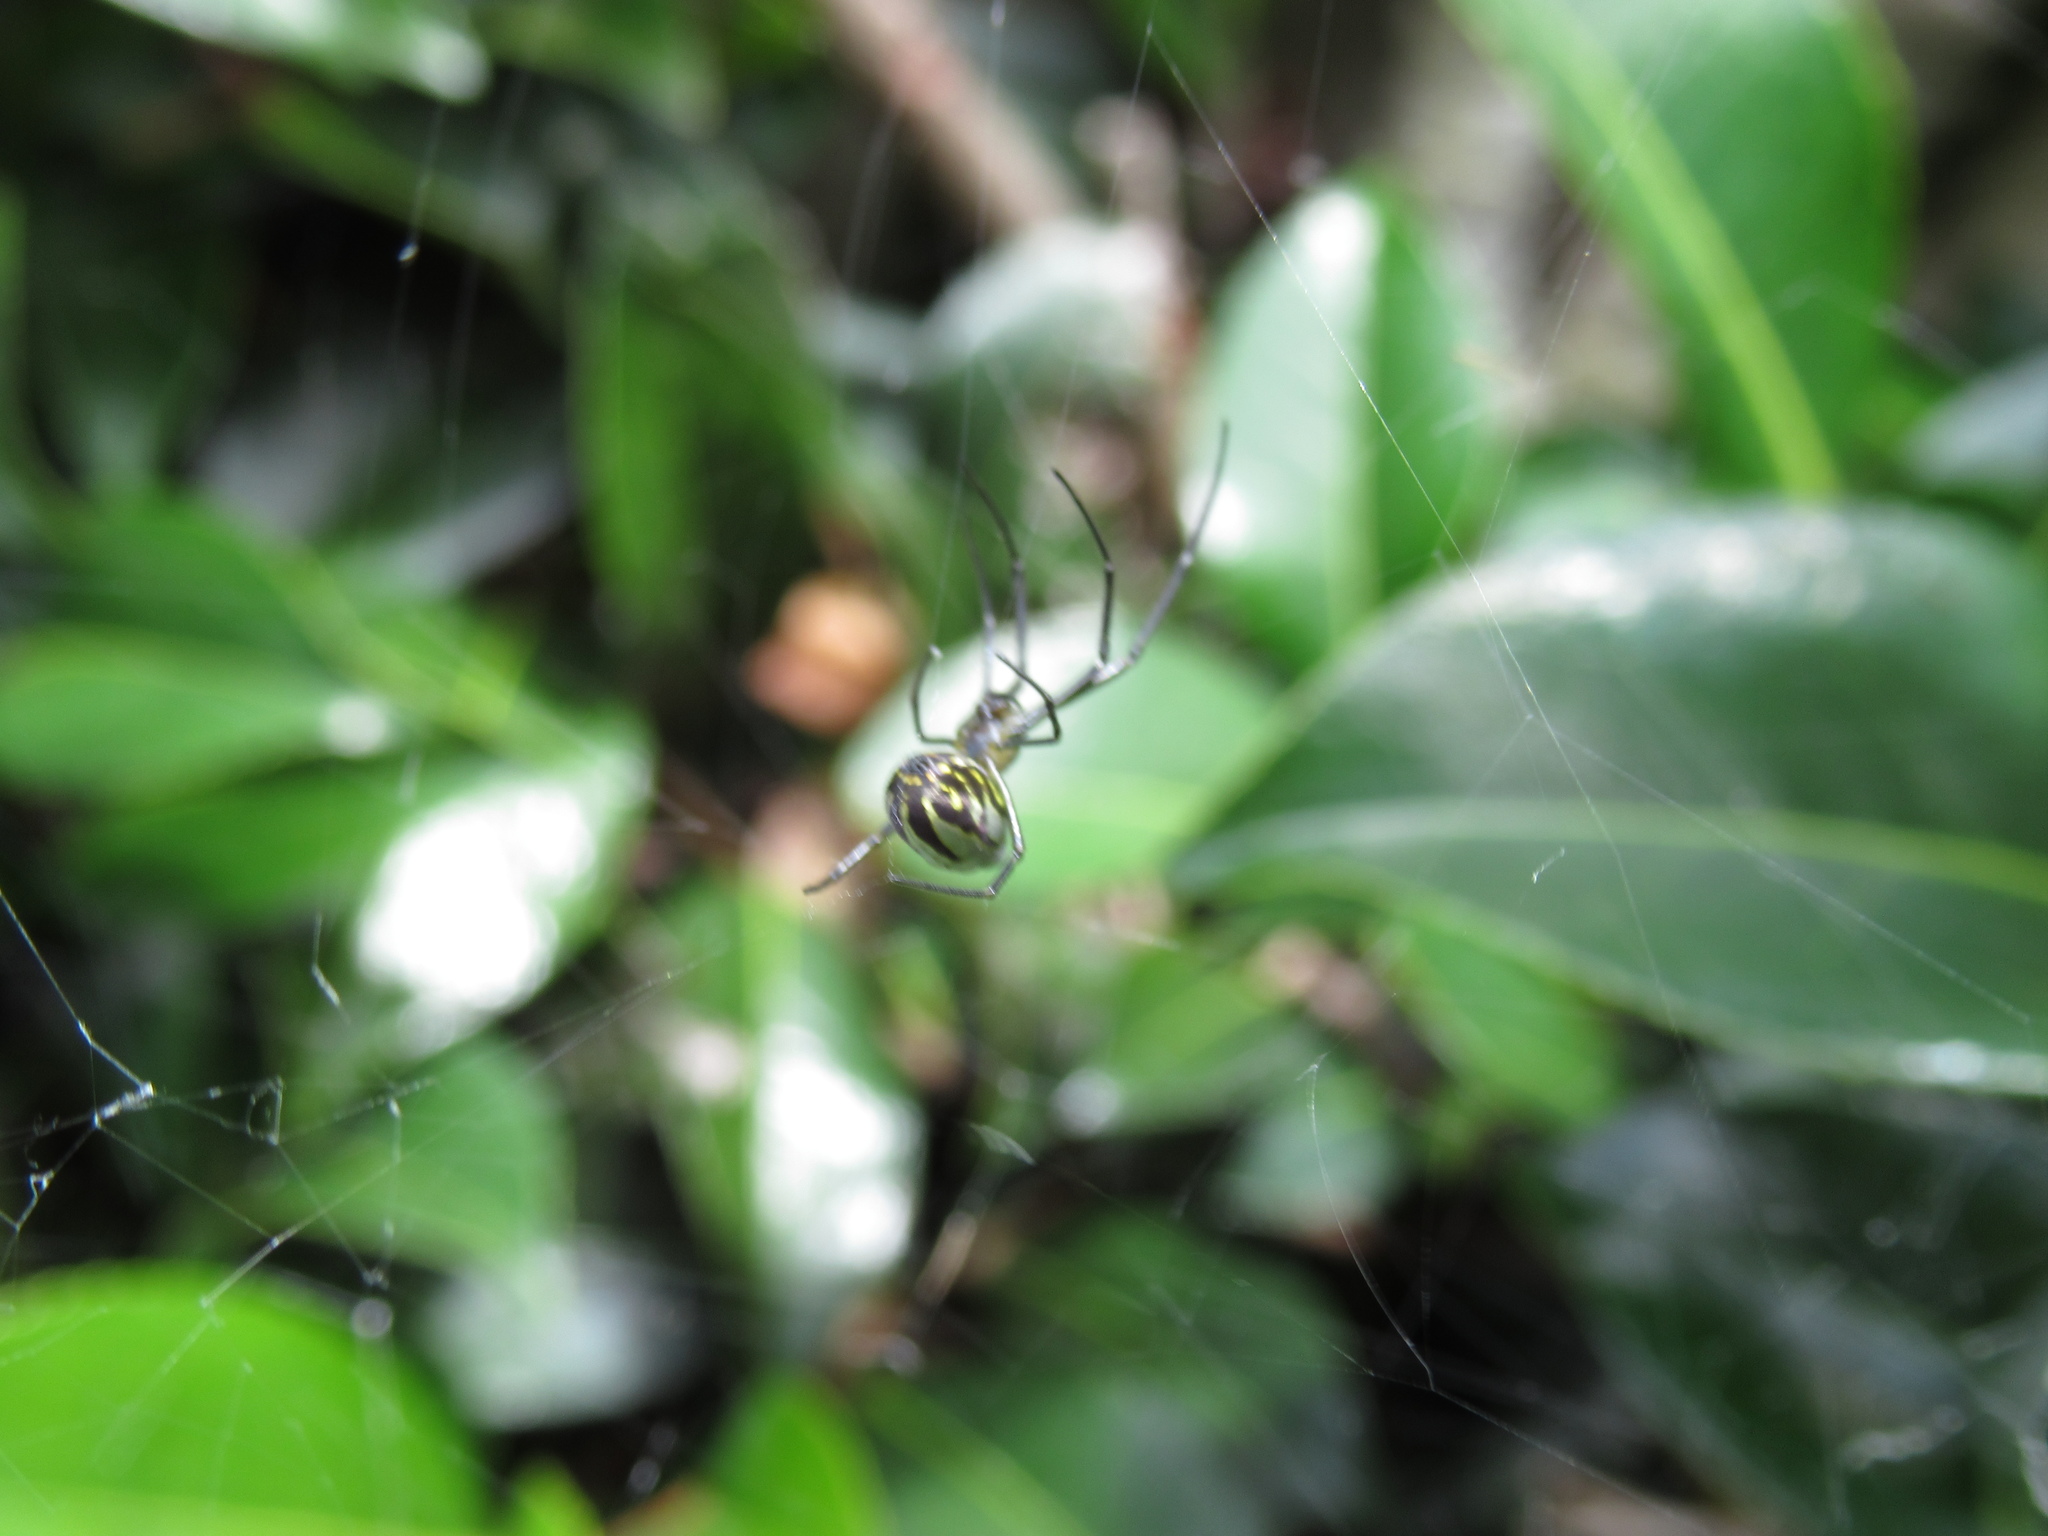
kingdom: Animalia
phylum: Arthropoda
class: Arachnida
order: Araneae
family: Tetragnathidae
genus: Leucauge
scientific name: Leucauge dromedaria
